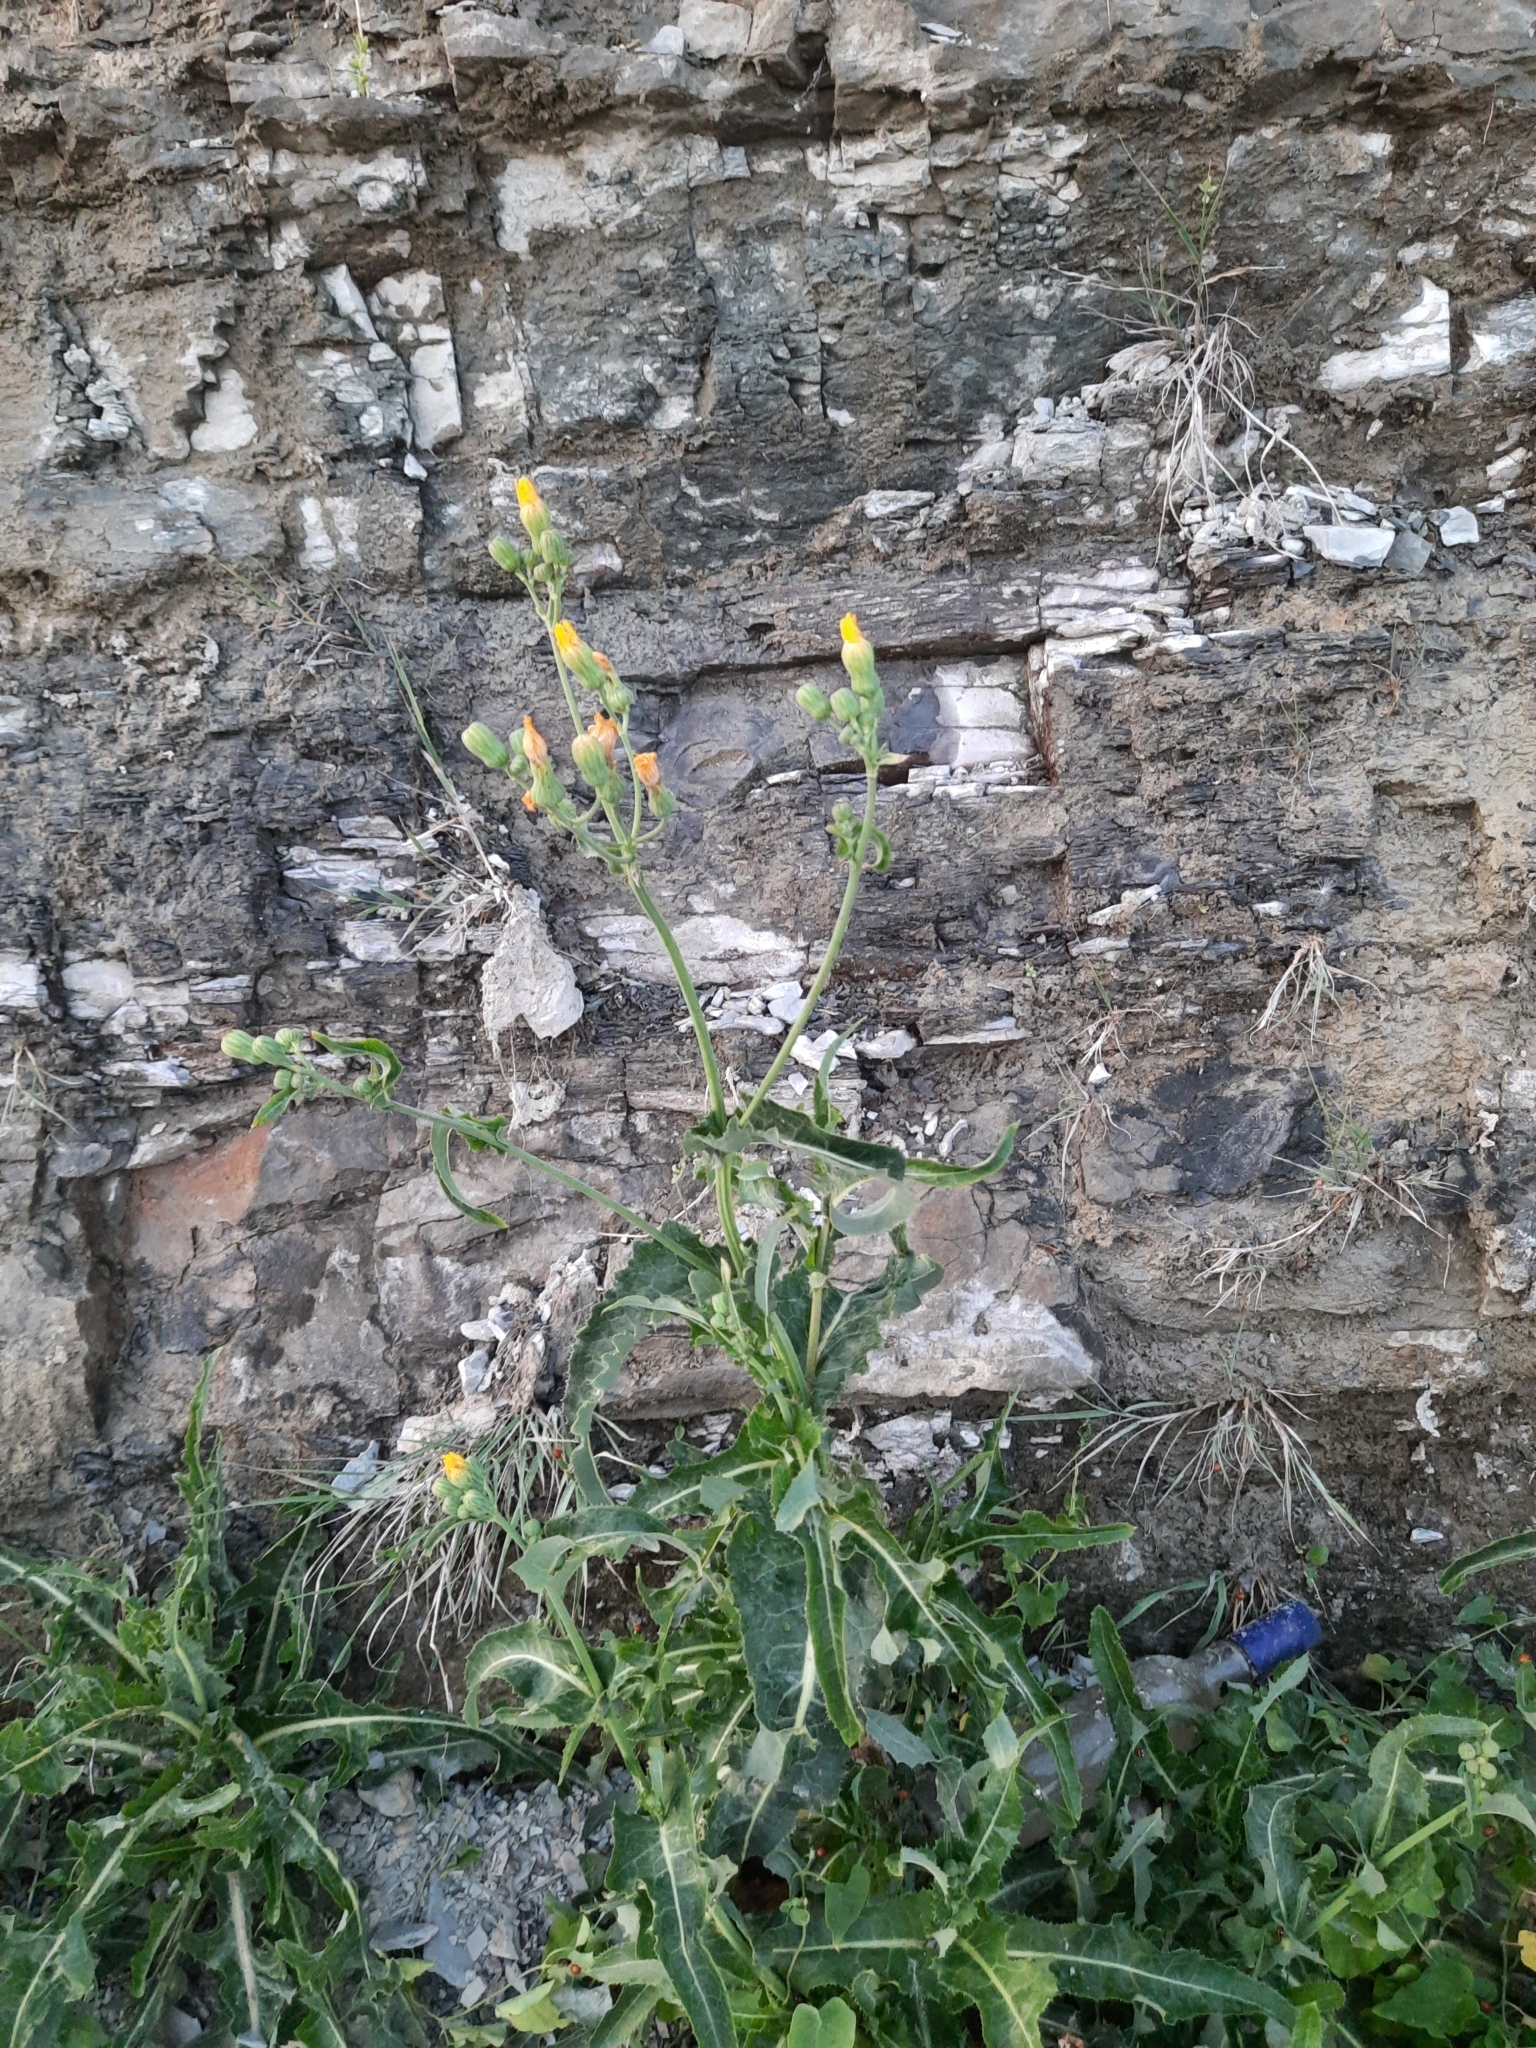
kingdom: Plantae
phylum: Tracheophyta
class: Magnoliopsida
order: Asterales
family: Asteraceae
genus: Sonchus
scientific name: Sonchus arvensis
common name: Perennial sow-thistle
